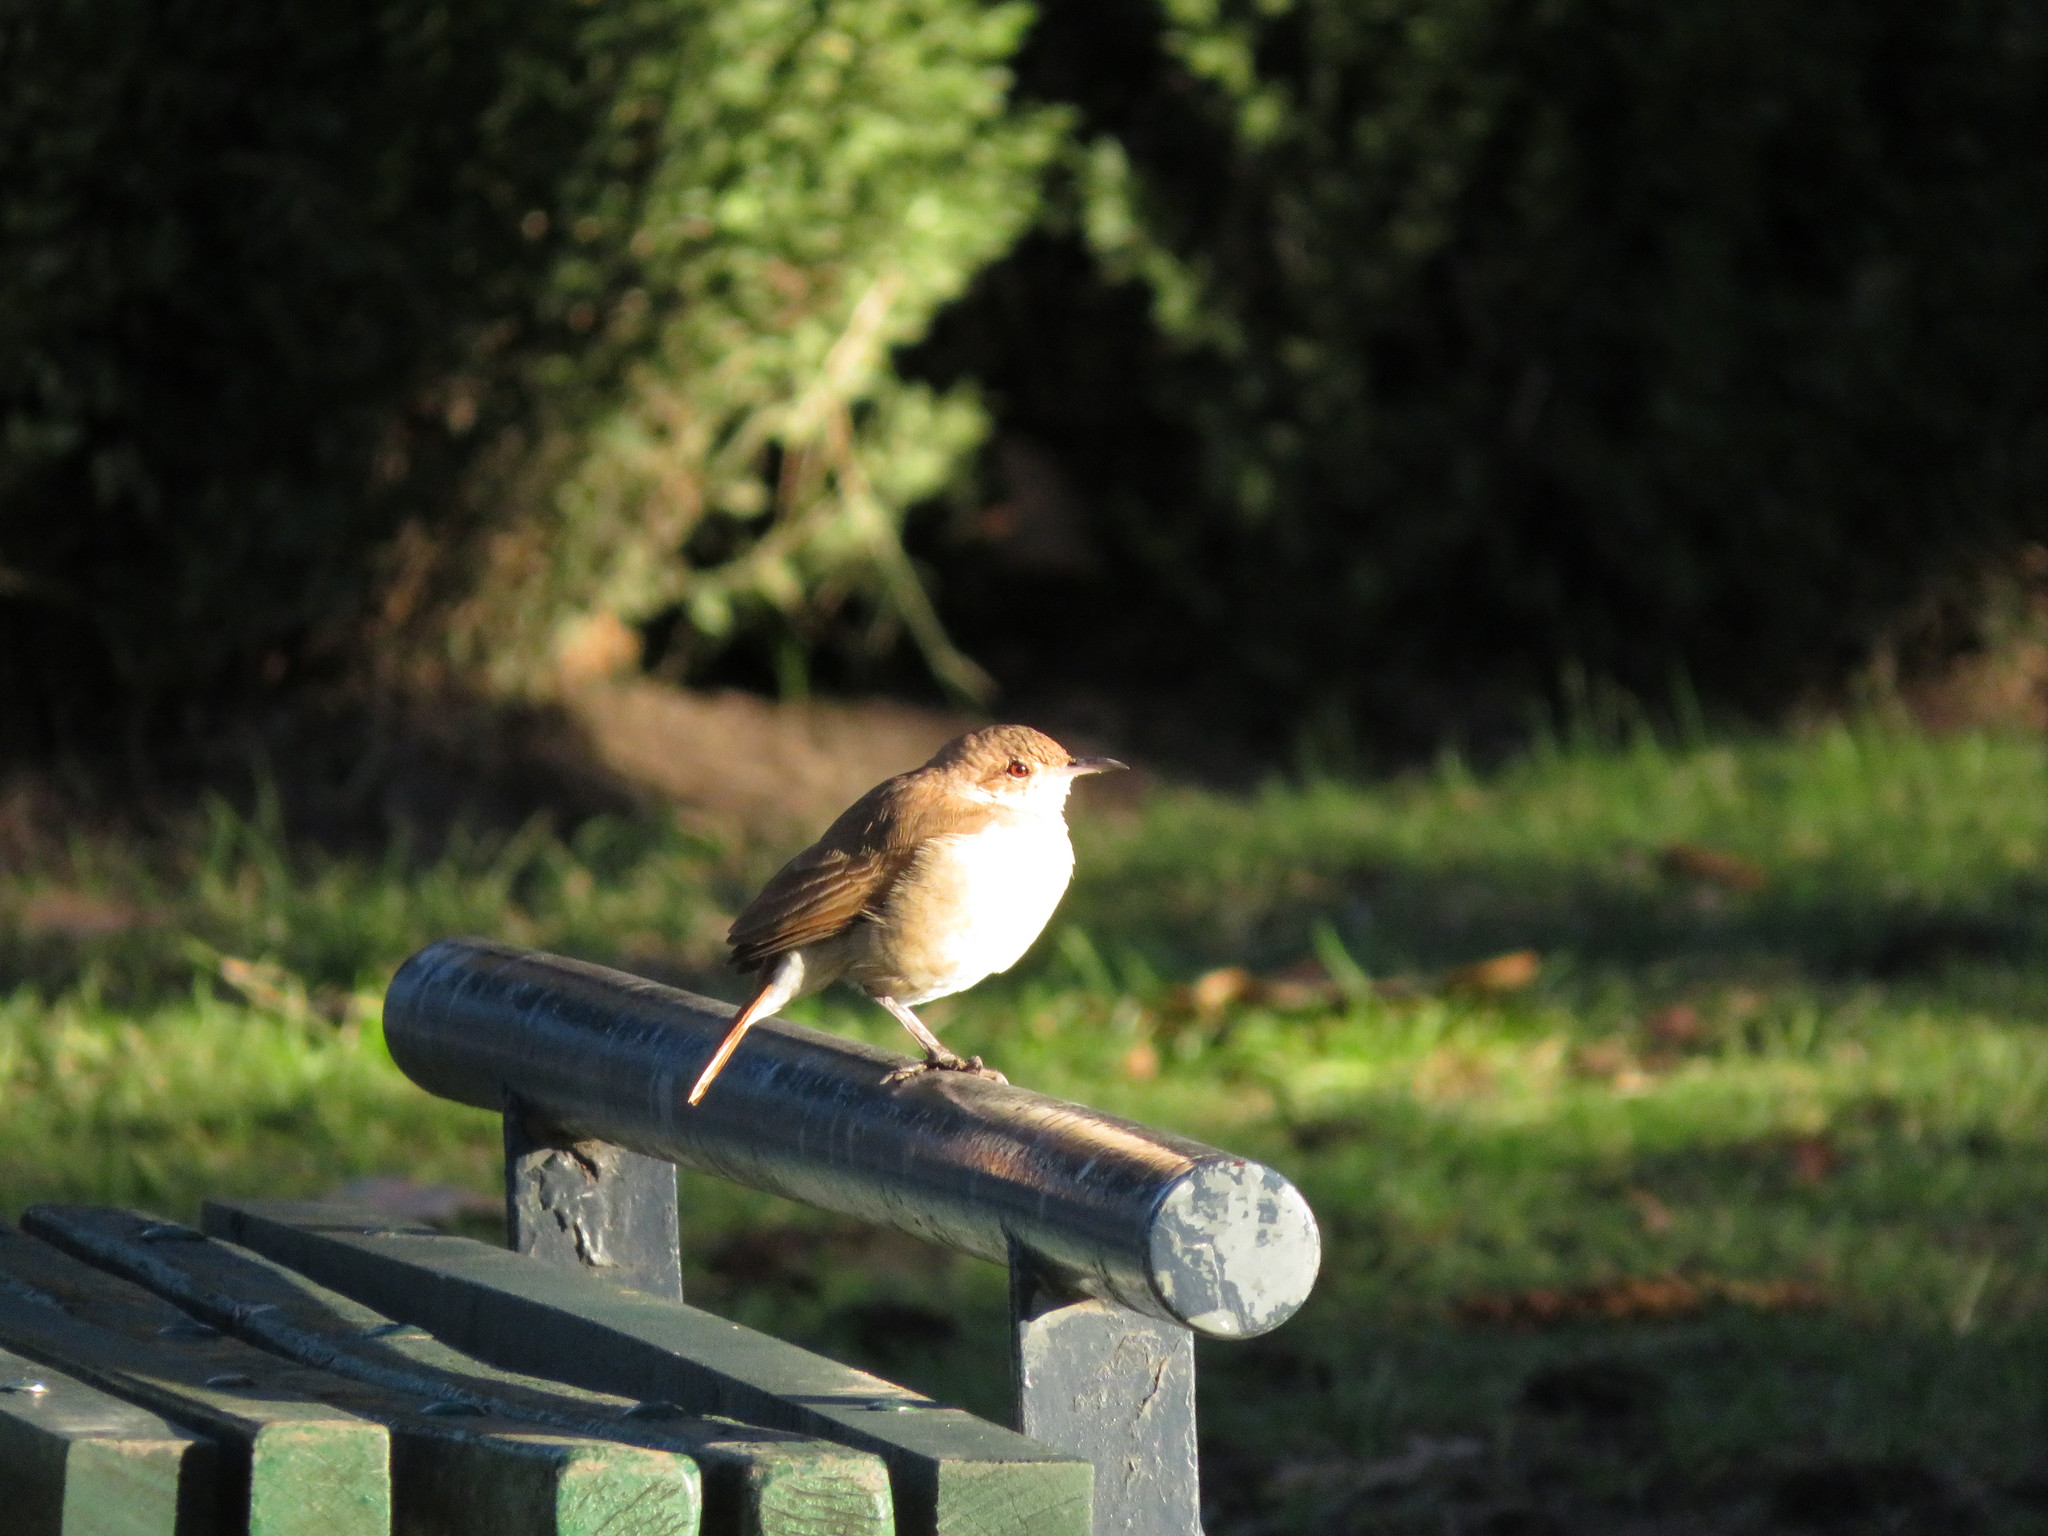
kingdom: Animalia
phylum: Chordata
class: Aves
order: Passeriformes
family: Furnariidae
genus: Furnarius
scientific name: Furnarius rufus
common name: Rufous hornero
